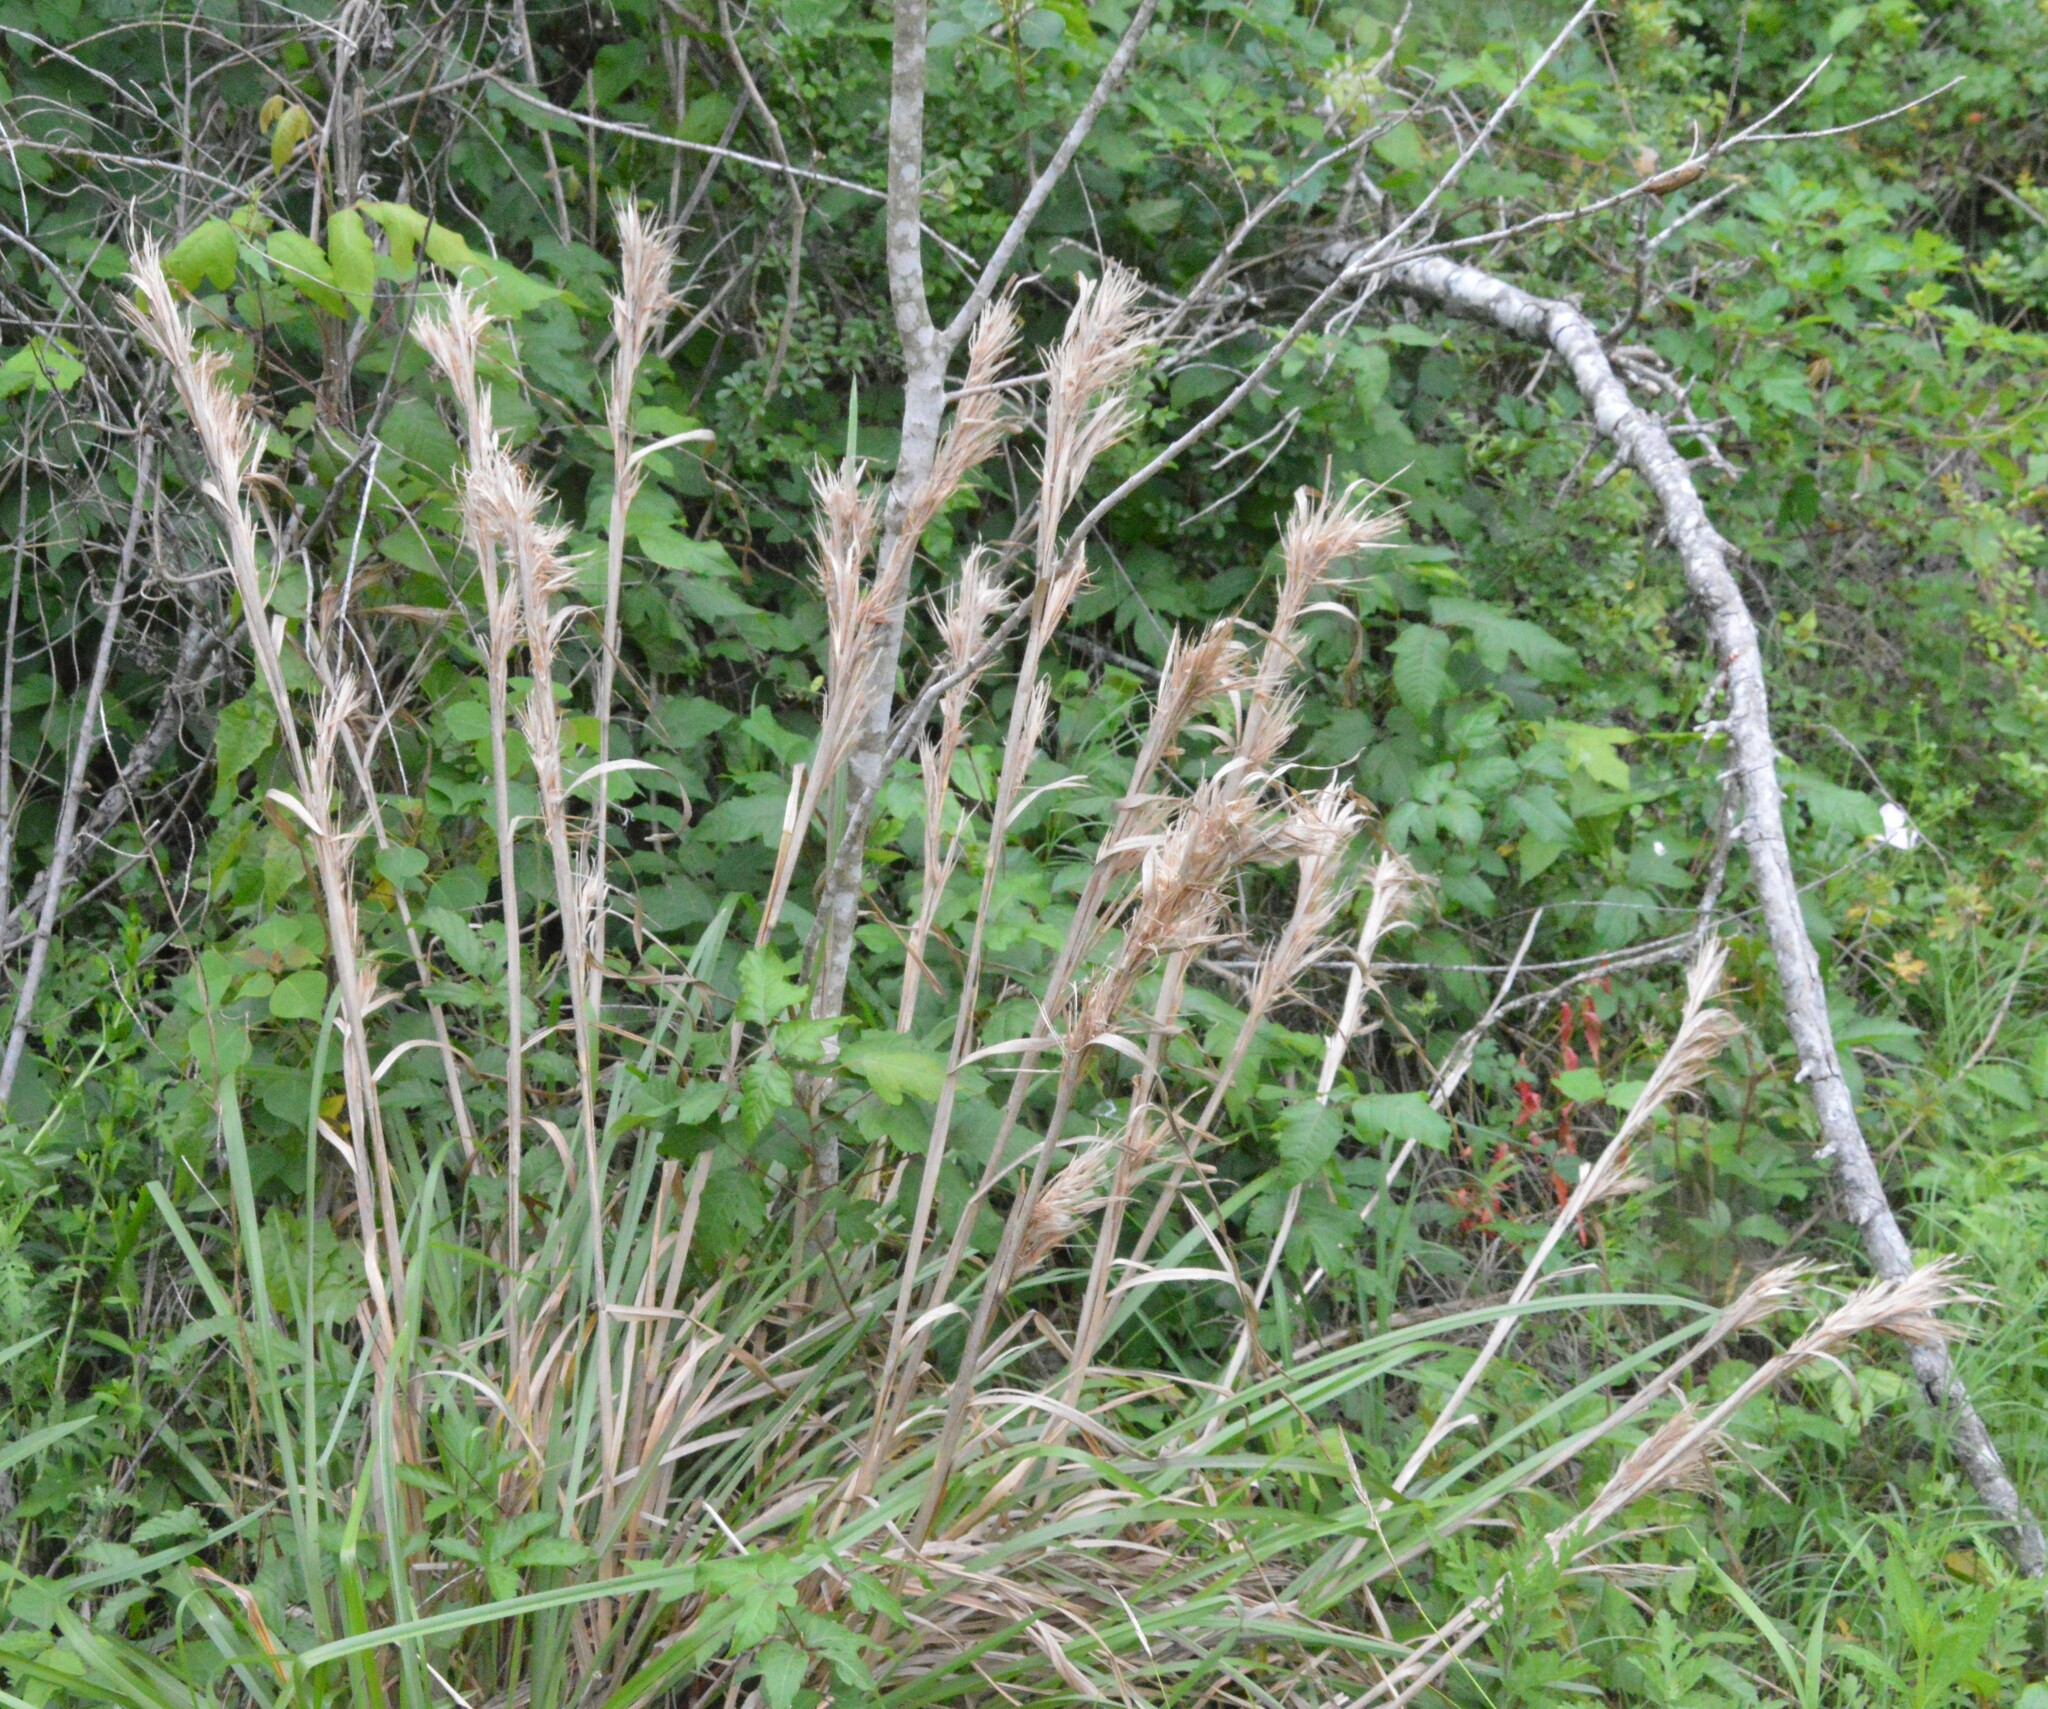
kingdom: Plantae
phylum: Tracheophyta
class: Liliopsida
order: Poales
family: Poaceae
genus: Andropogon
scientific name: Andropogon tenuispatheus
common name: Bushy bluestem
